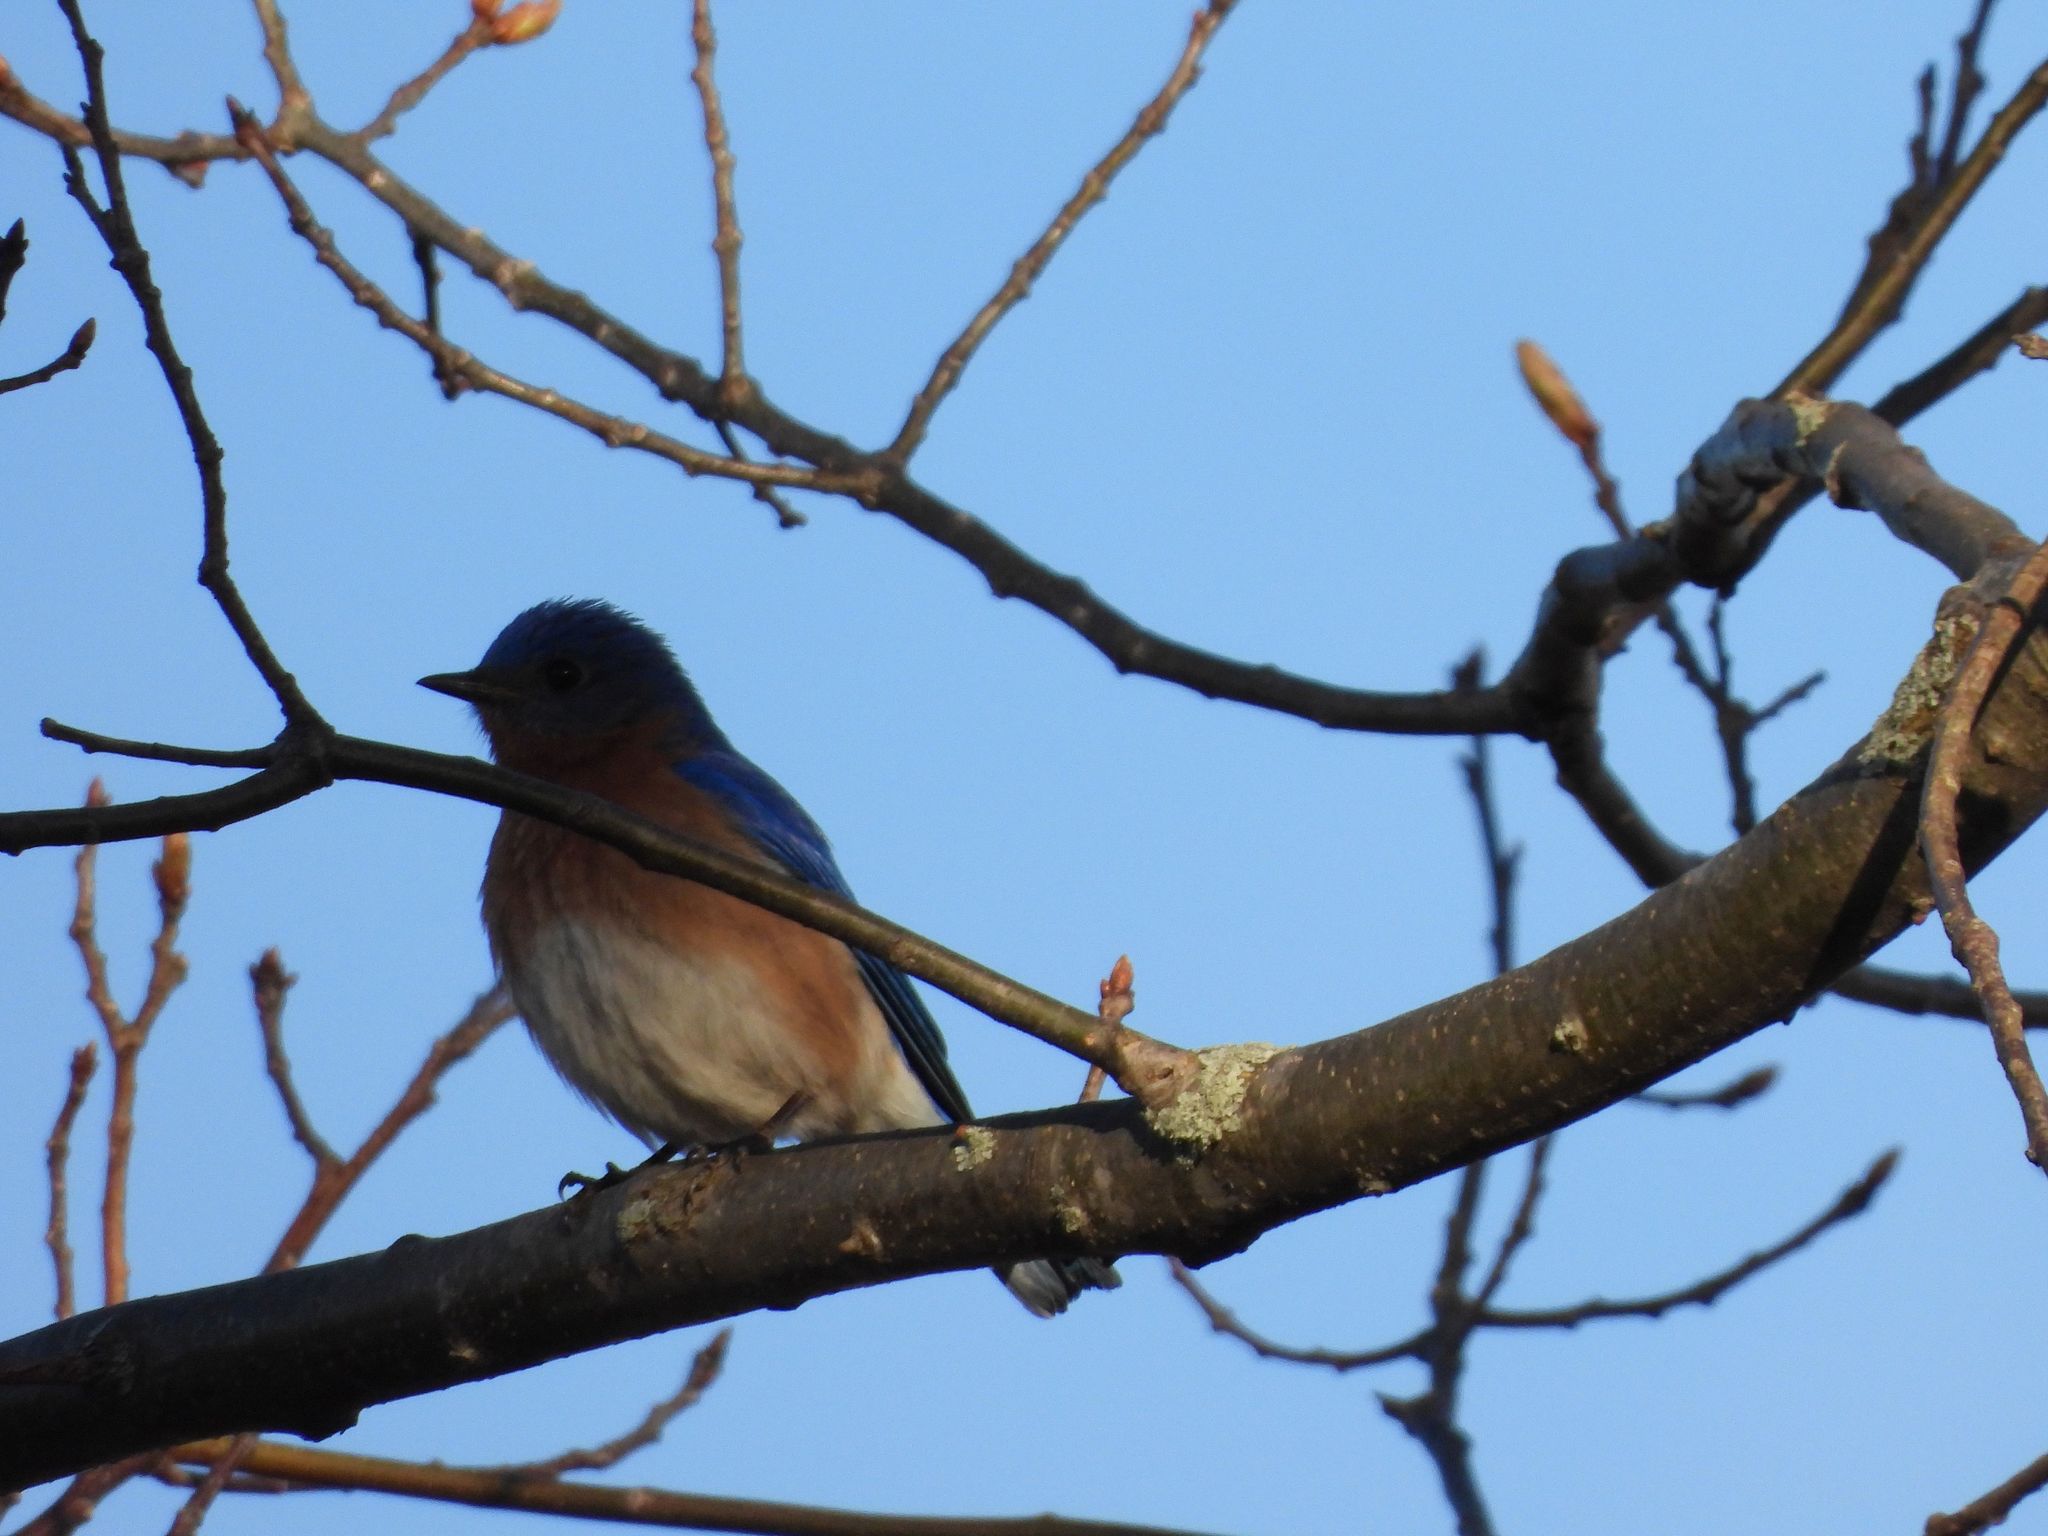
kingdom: Animalia
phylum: Chordata
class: Aves
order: Passeriformes
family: Turdidae
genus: Sialia
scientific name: Sialia sialis
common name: Eastern bluebird
